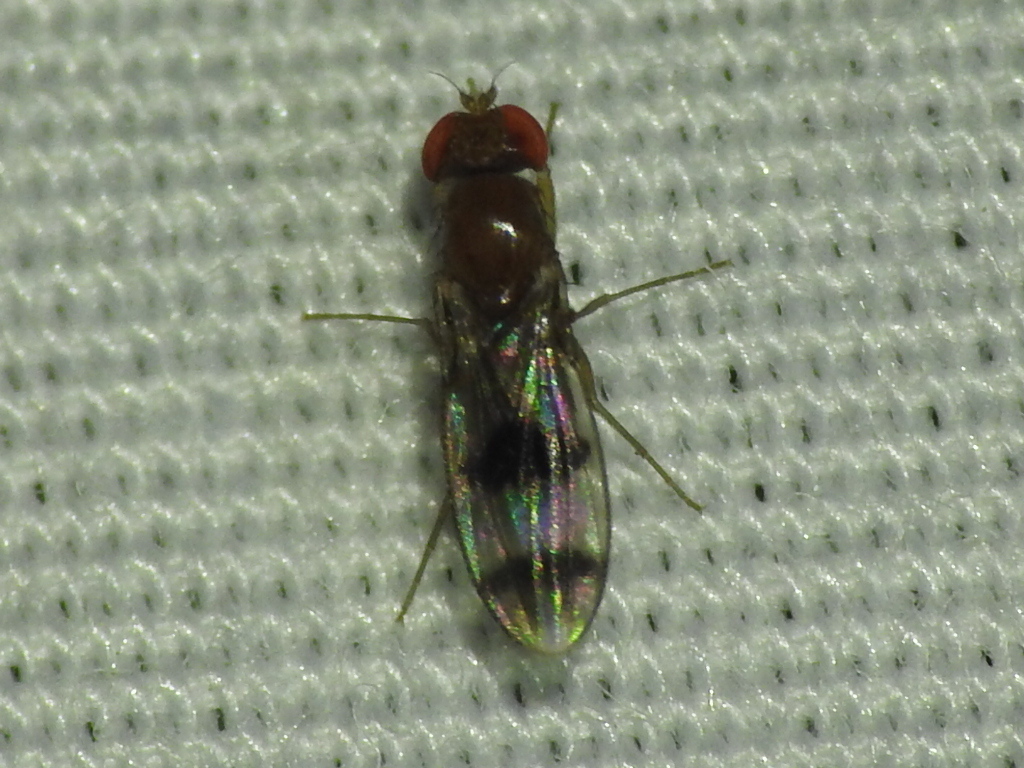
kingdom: Animalia
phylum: Arthropoda
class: Insecta
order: Diptera
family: Drosophilidae
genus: Chymomyza
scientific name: Chymomyza amoena
